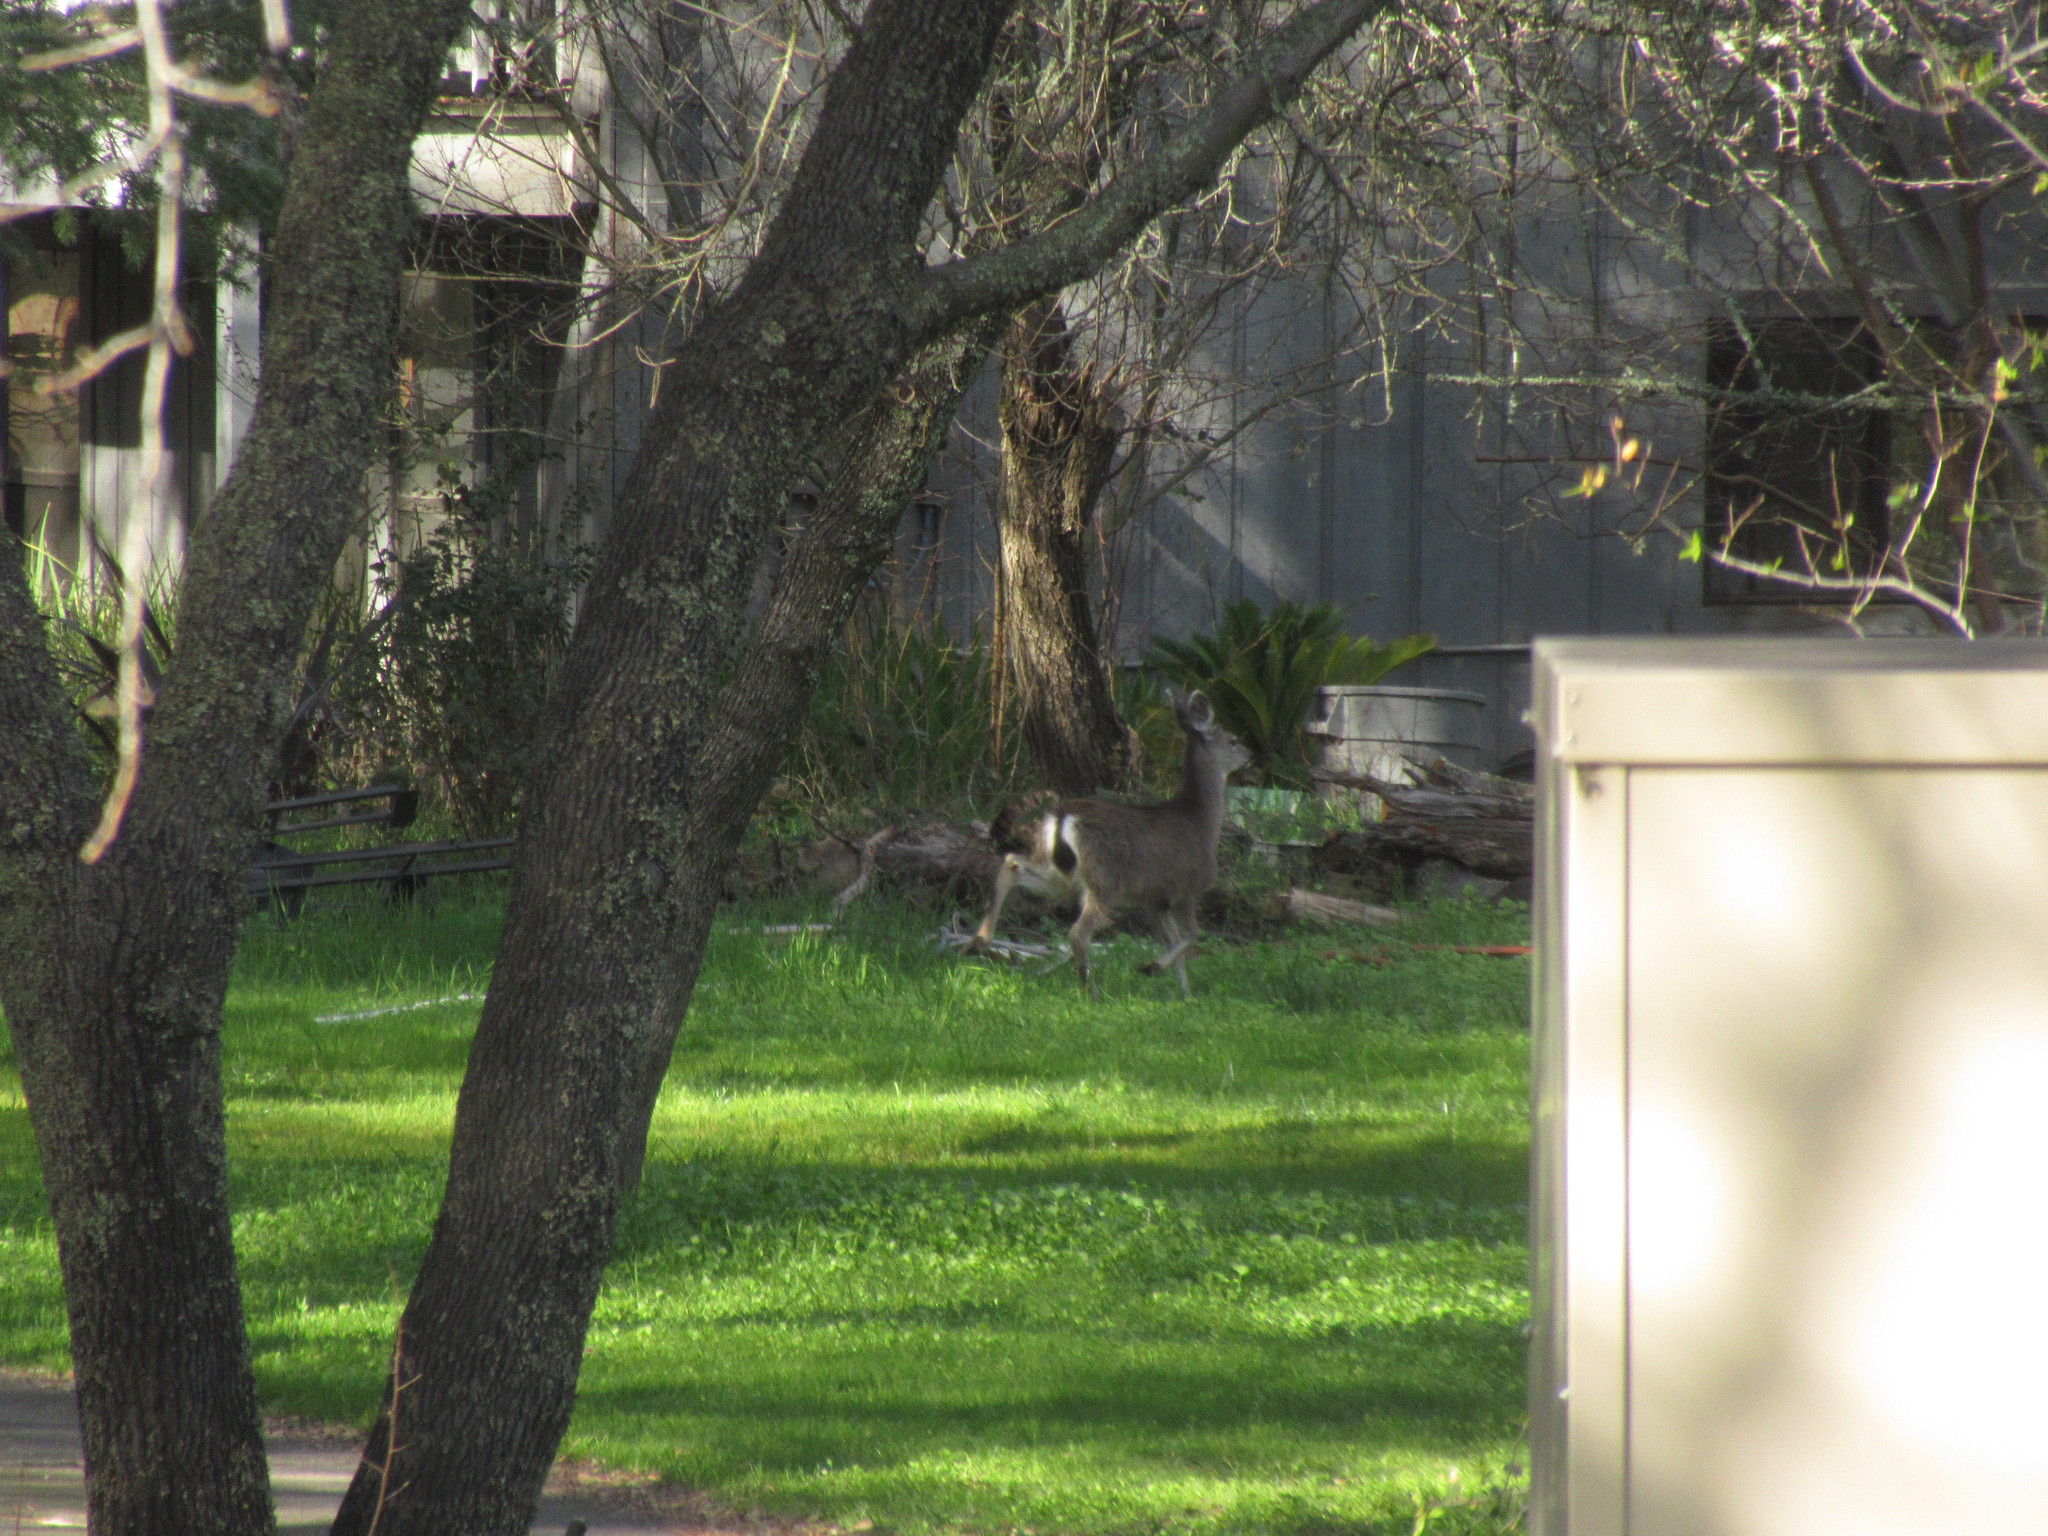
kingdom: Animalia
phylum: Chordata
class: Mammalia
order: Artiodactyla
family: Cervidae
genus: Odocoileus
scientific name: Odocoileus hemionus
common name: Mule deer
